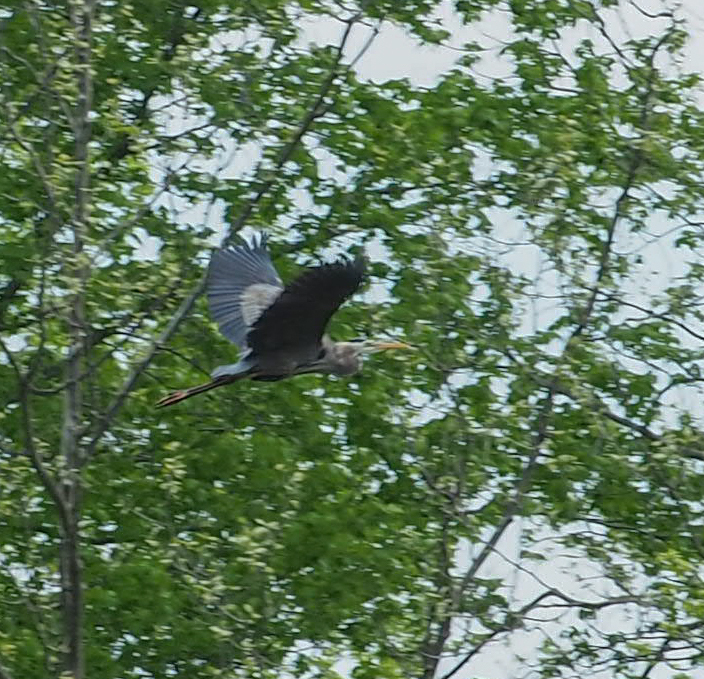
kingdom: Animalia
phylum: Chordata
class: Aves
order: Pelecaniformes
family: Ardeidae
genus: Ardea
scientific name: Ardea herodias
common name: Great blue heron
